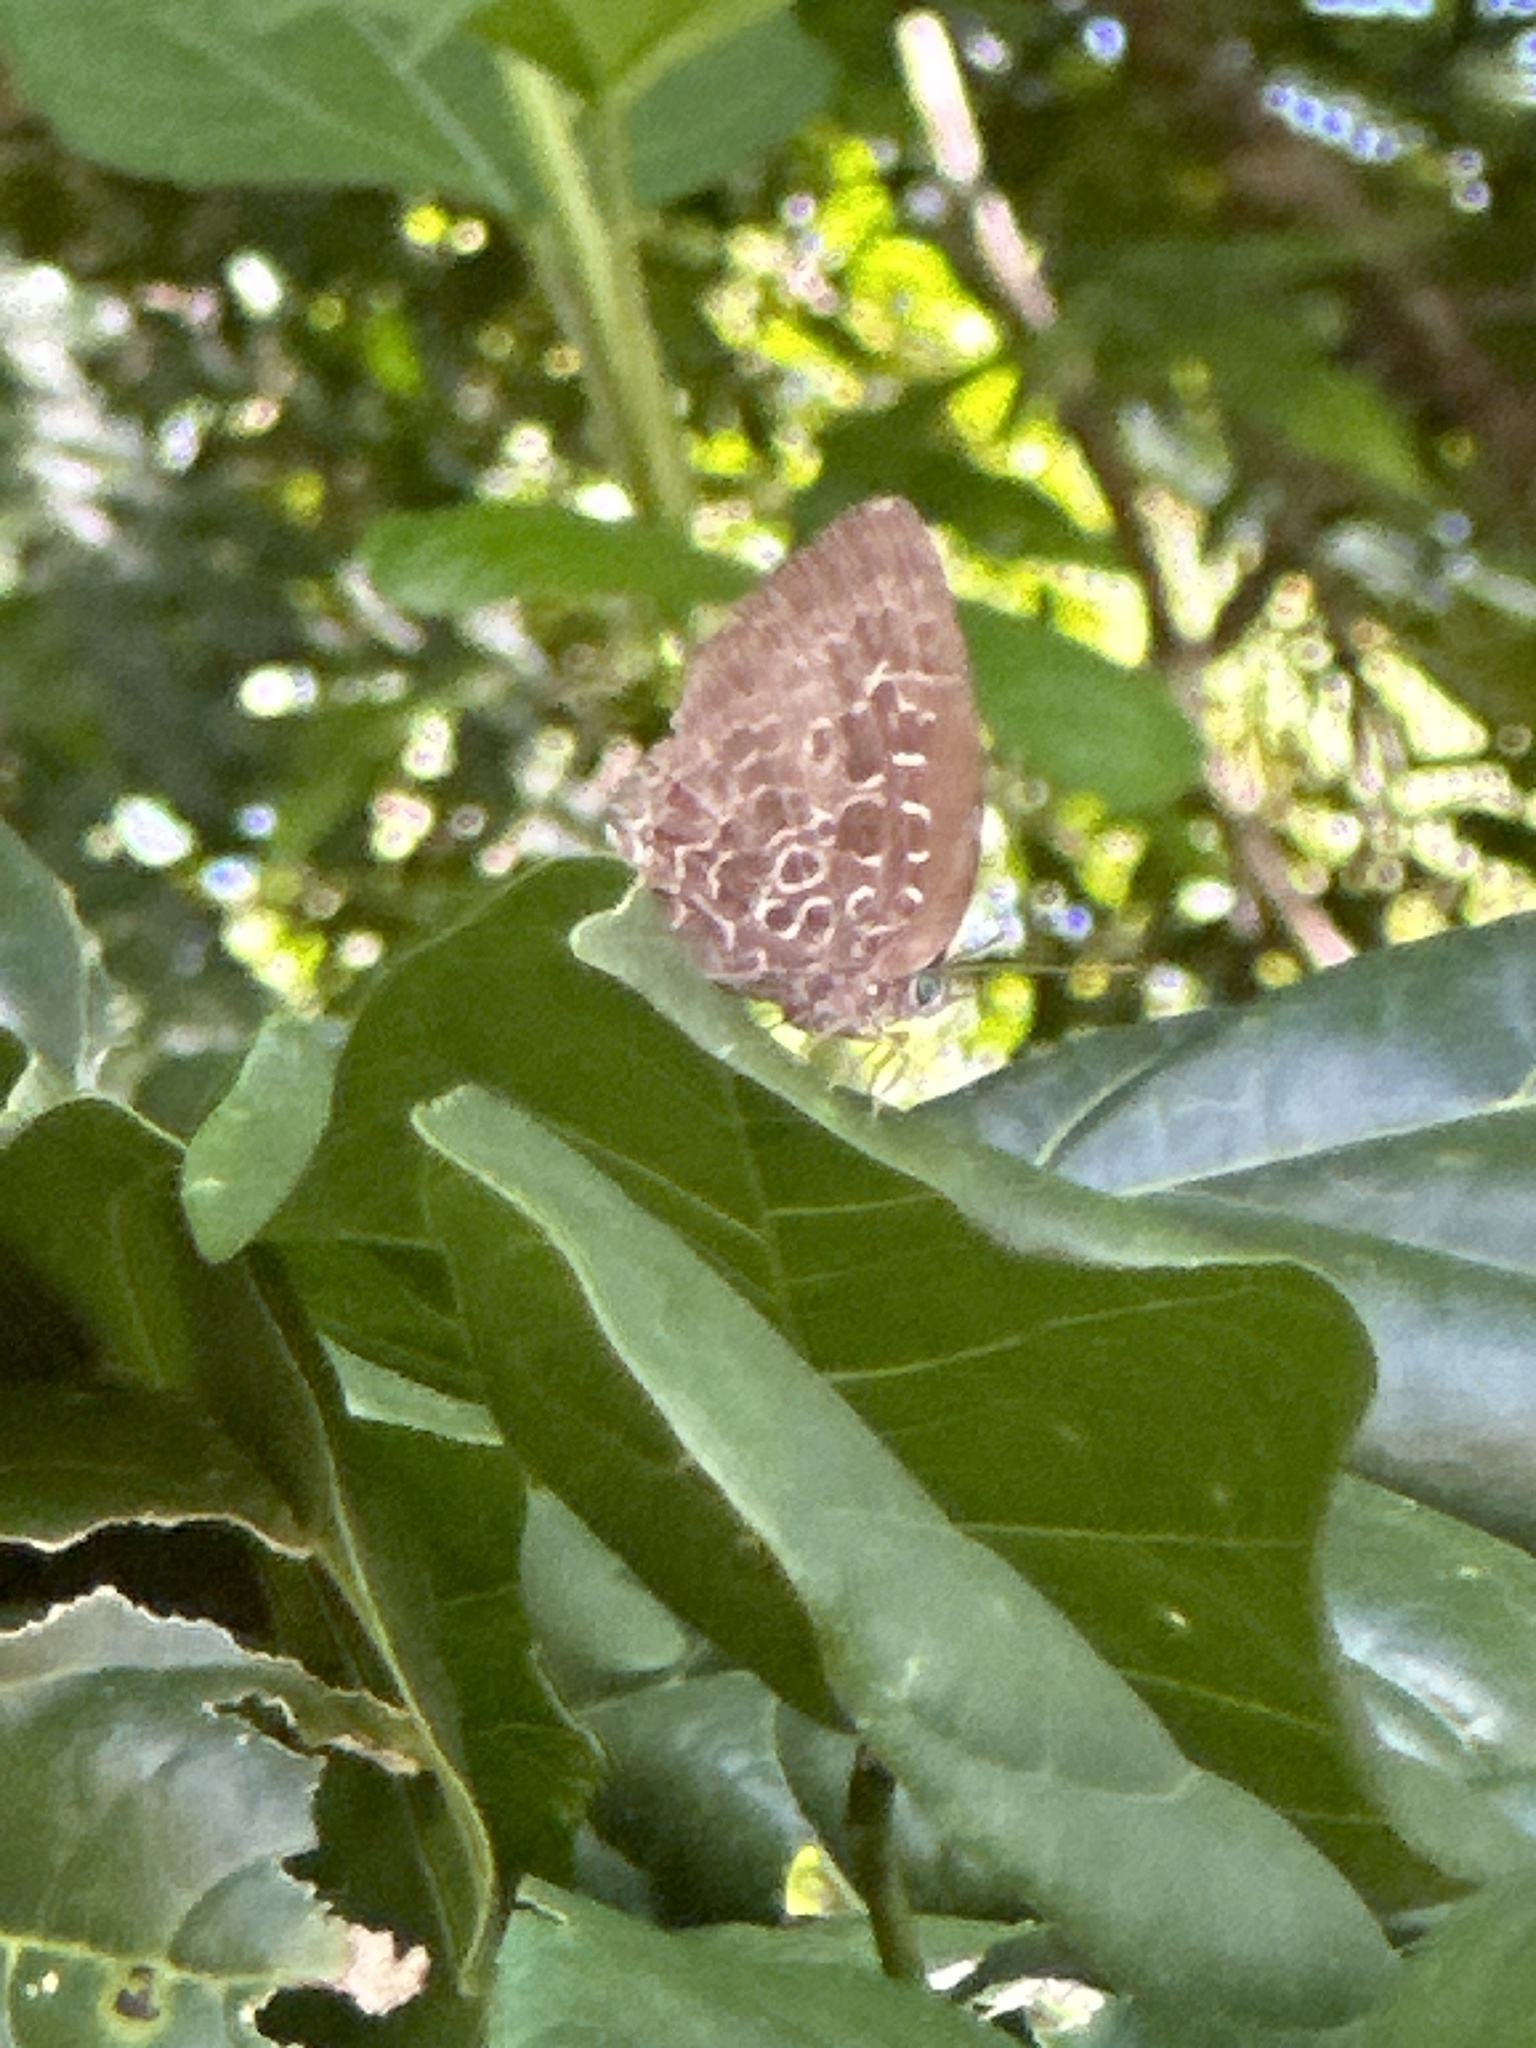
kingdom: Animalia
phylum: Arthropoda
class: Insecta
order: Lepidoptera
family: Lycaenidae
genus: Arhopala
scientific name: Arhopala acetes
